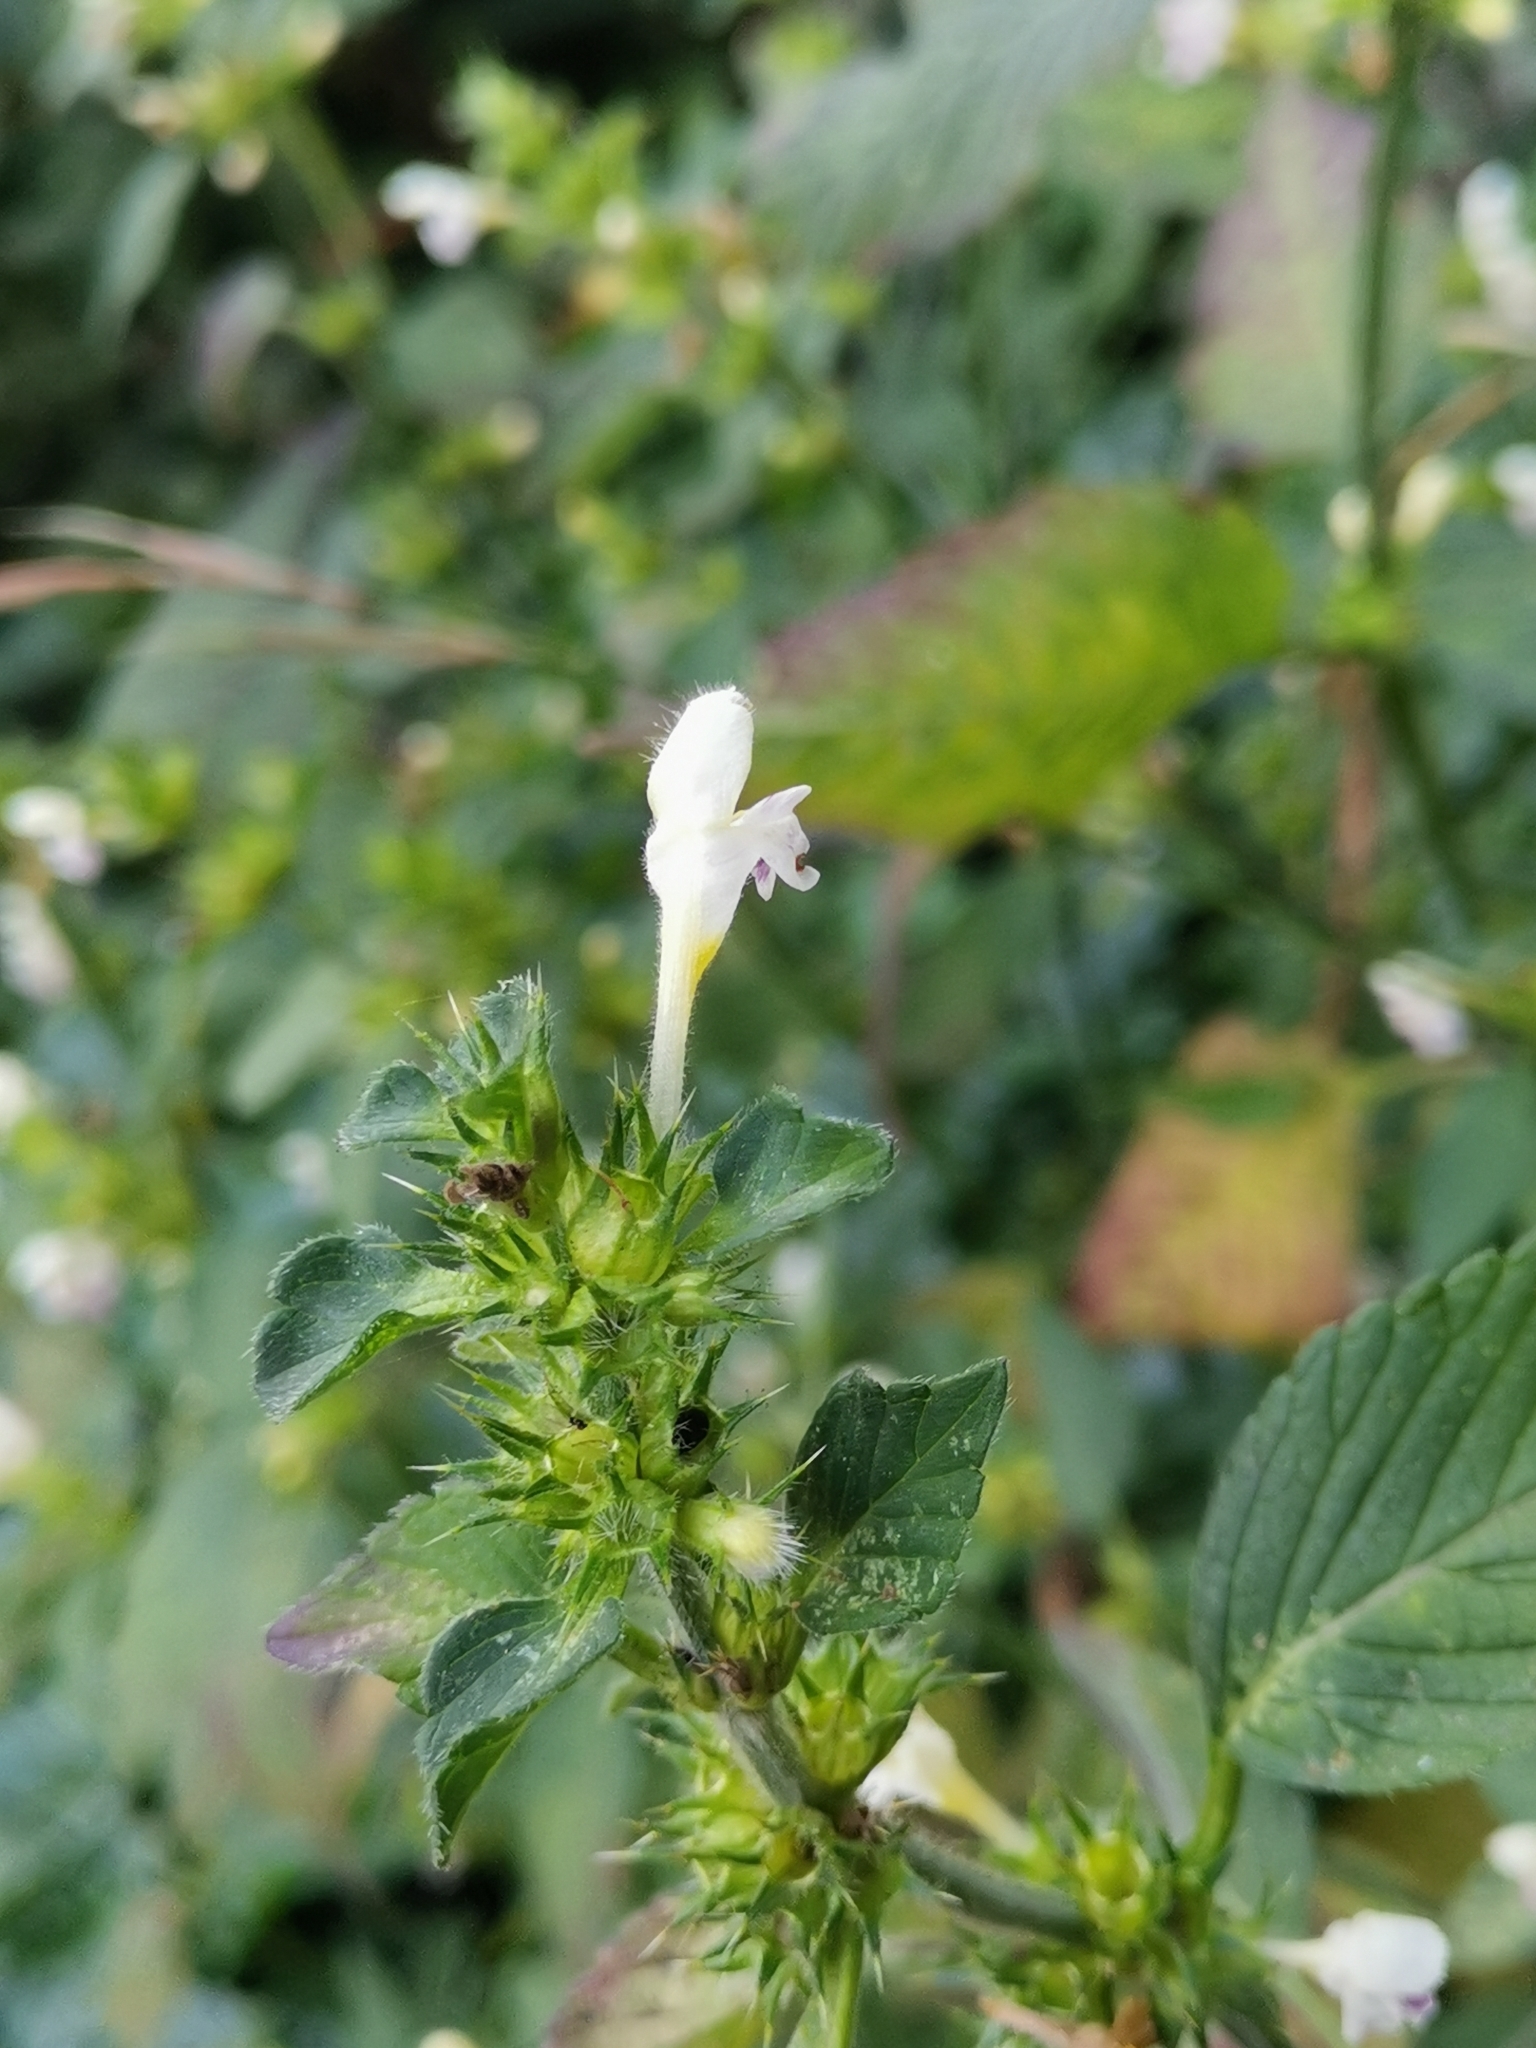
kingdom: Plantae
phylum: Tracheophyta
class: Magnoliopsida
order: Lamiales
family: Lamiaceae
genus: Galeopsis
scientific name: Galeopsis tetrahit
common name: Common hemp-nettle
